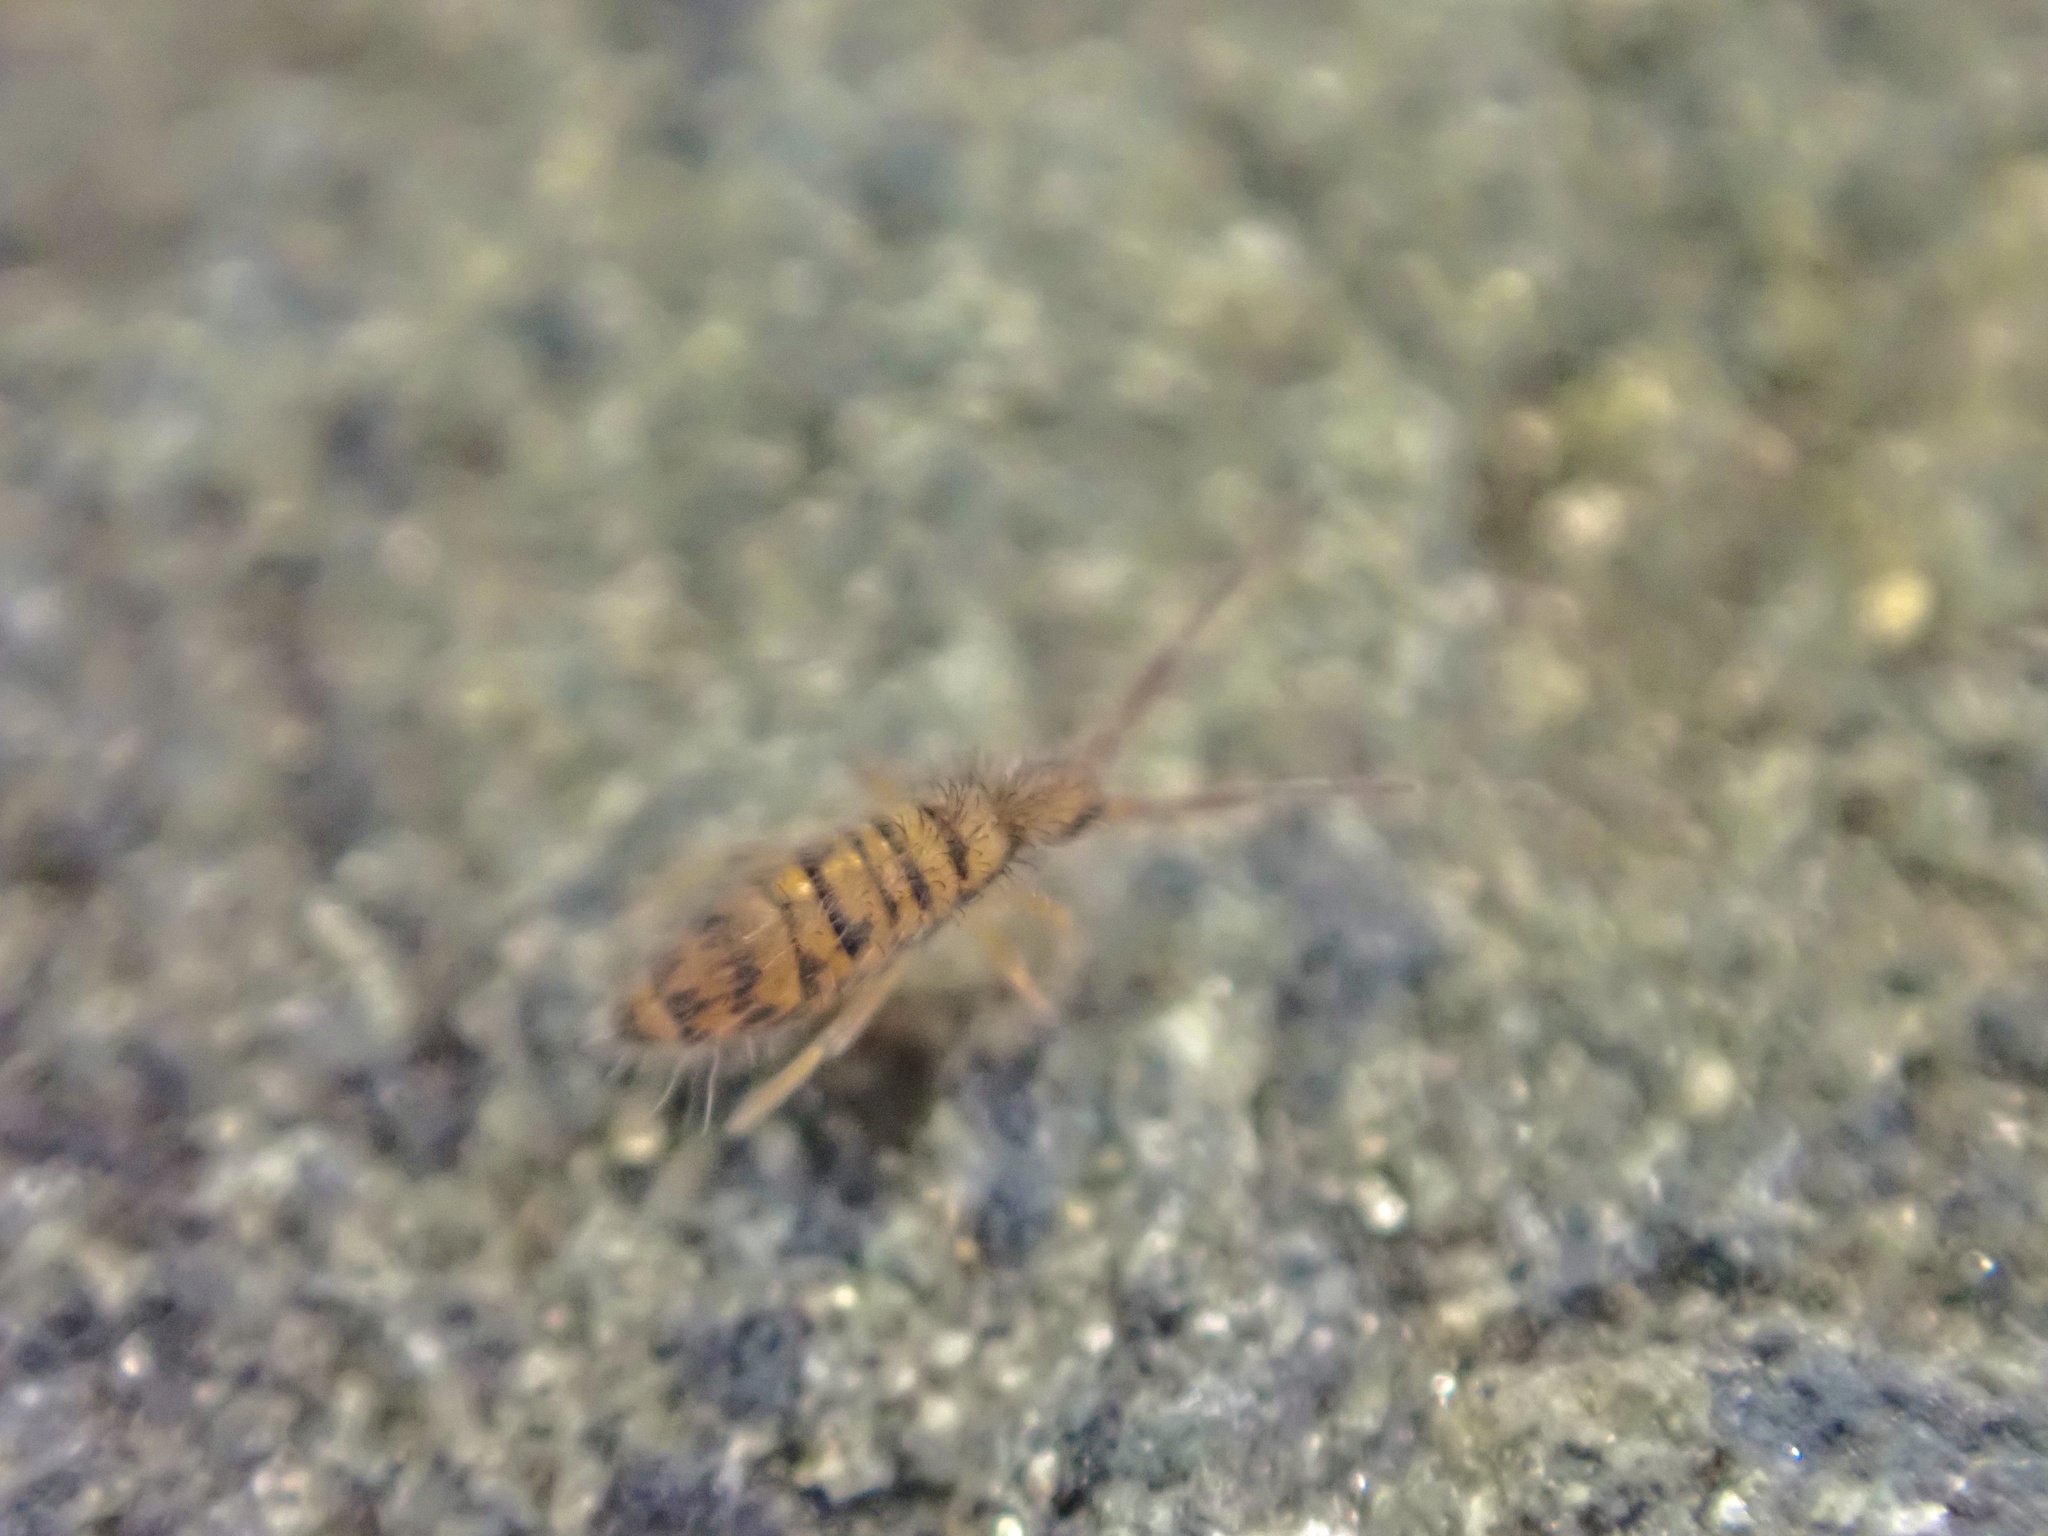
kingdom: Animalia
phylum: Arthropoda
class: Collembola
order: Entomobryomorpha
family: Entomobryidae
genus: Entomobrya
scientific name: Entomobrya multifasciata
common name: Springtail
